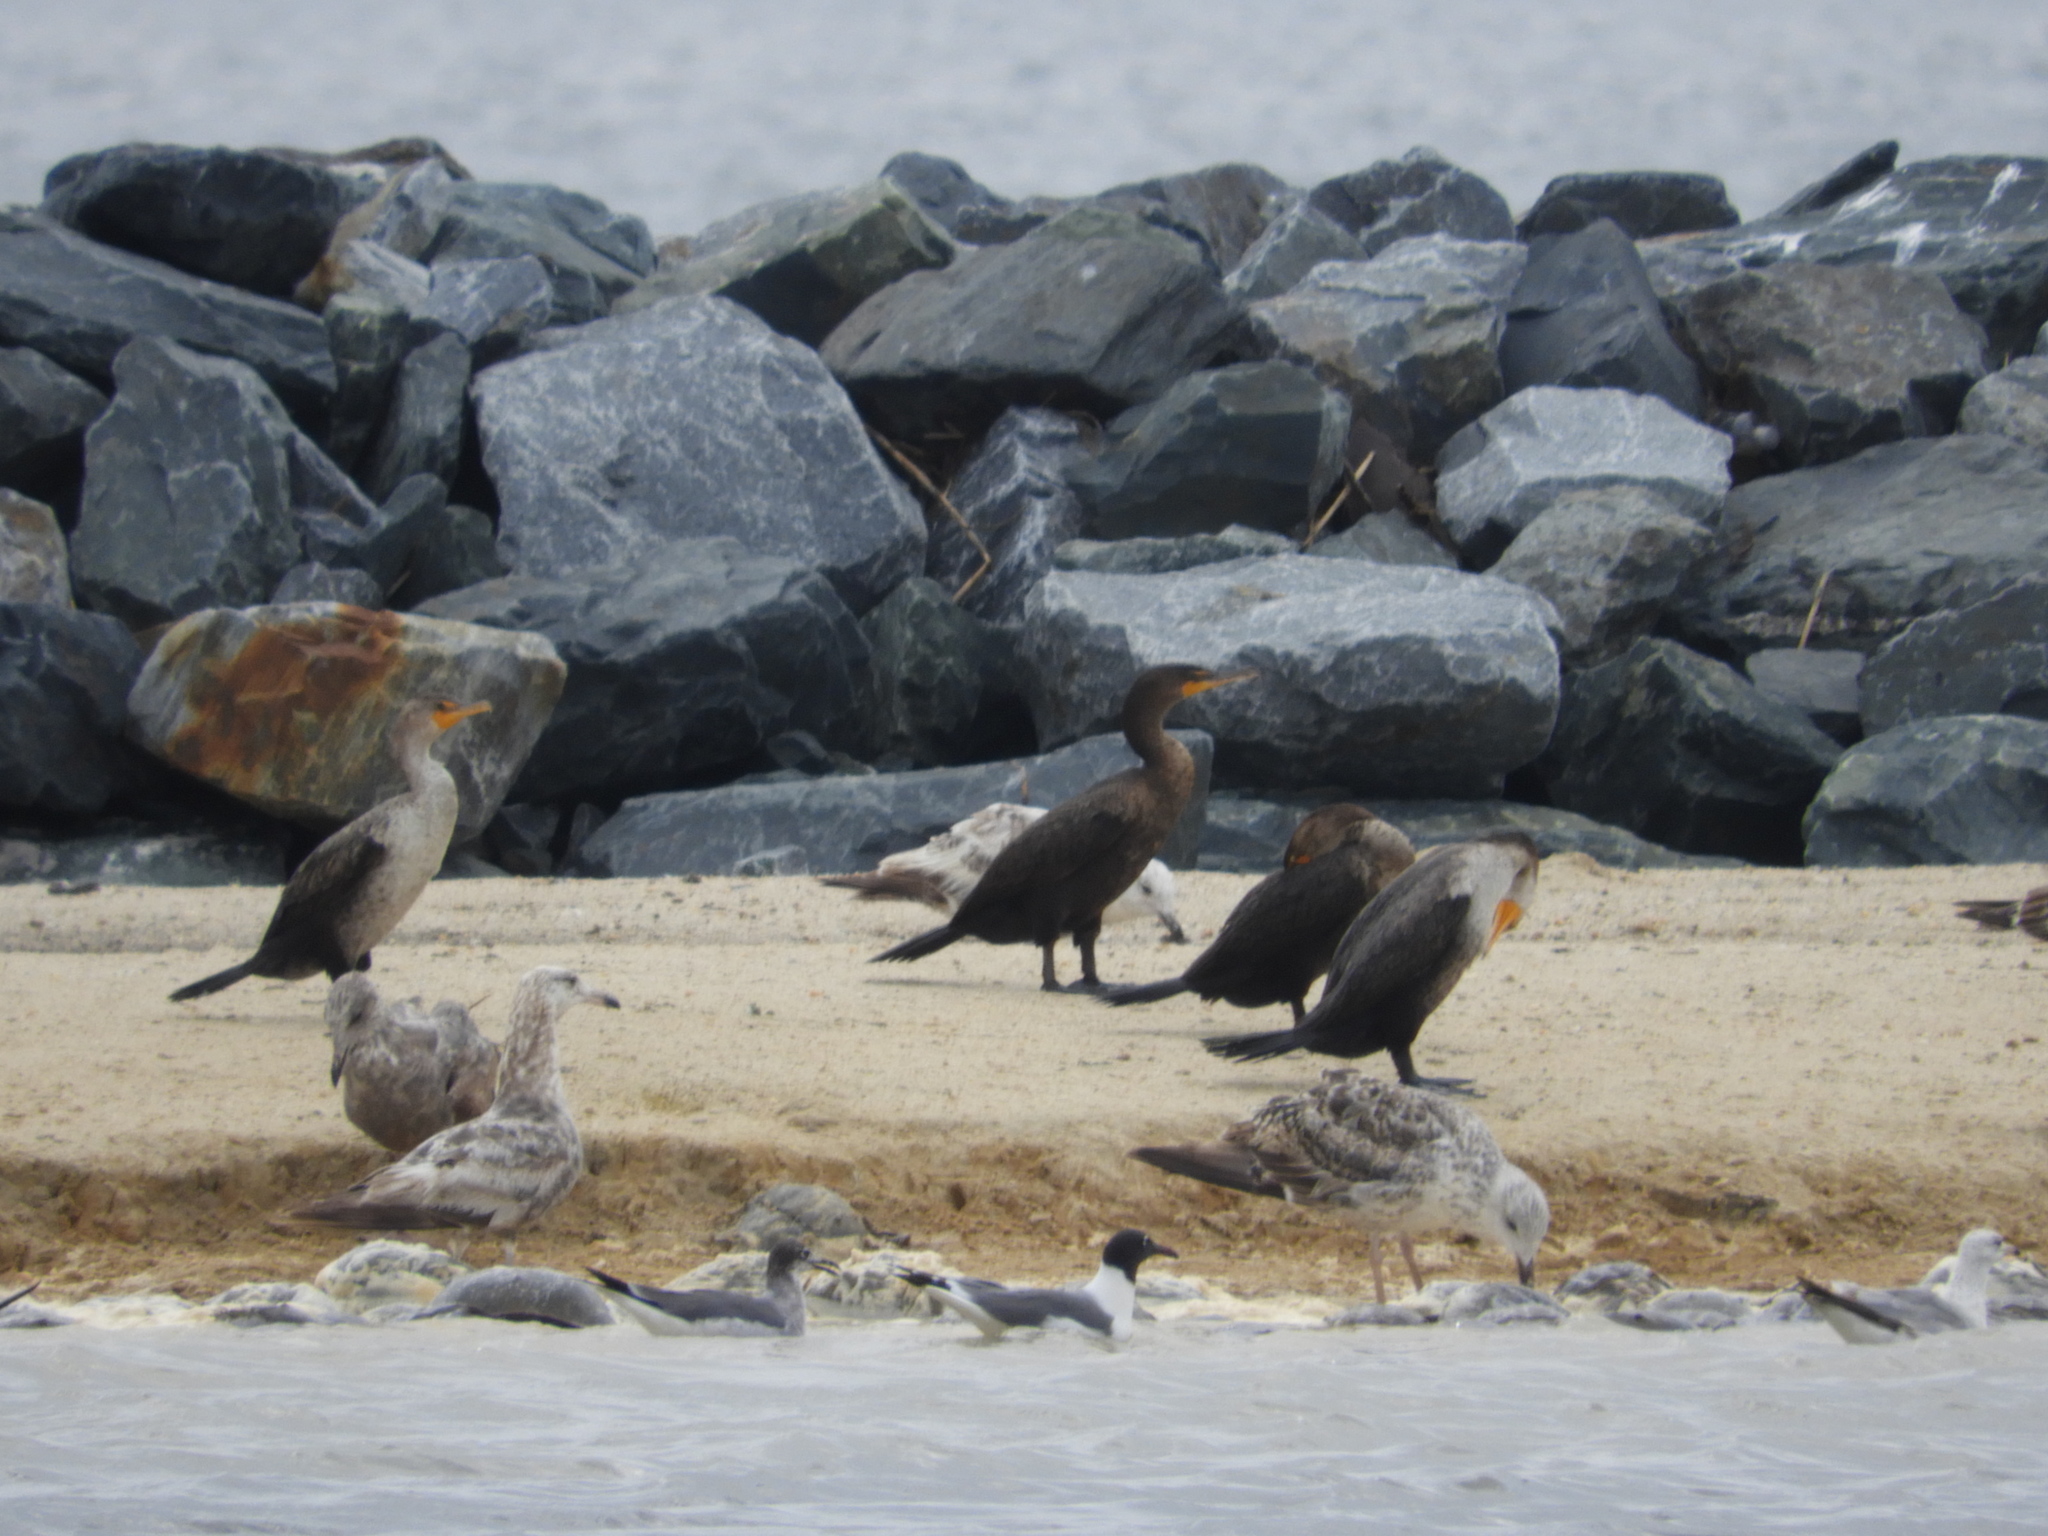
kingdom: Animalia
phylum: Chordata
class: Aves
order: Suliformes
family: Phalacrocoracidae
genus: Phalacrocorax
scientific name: Phalacrocorax auritus
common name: Double-crested cormorant
